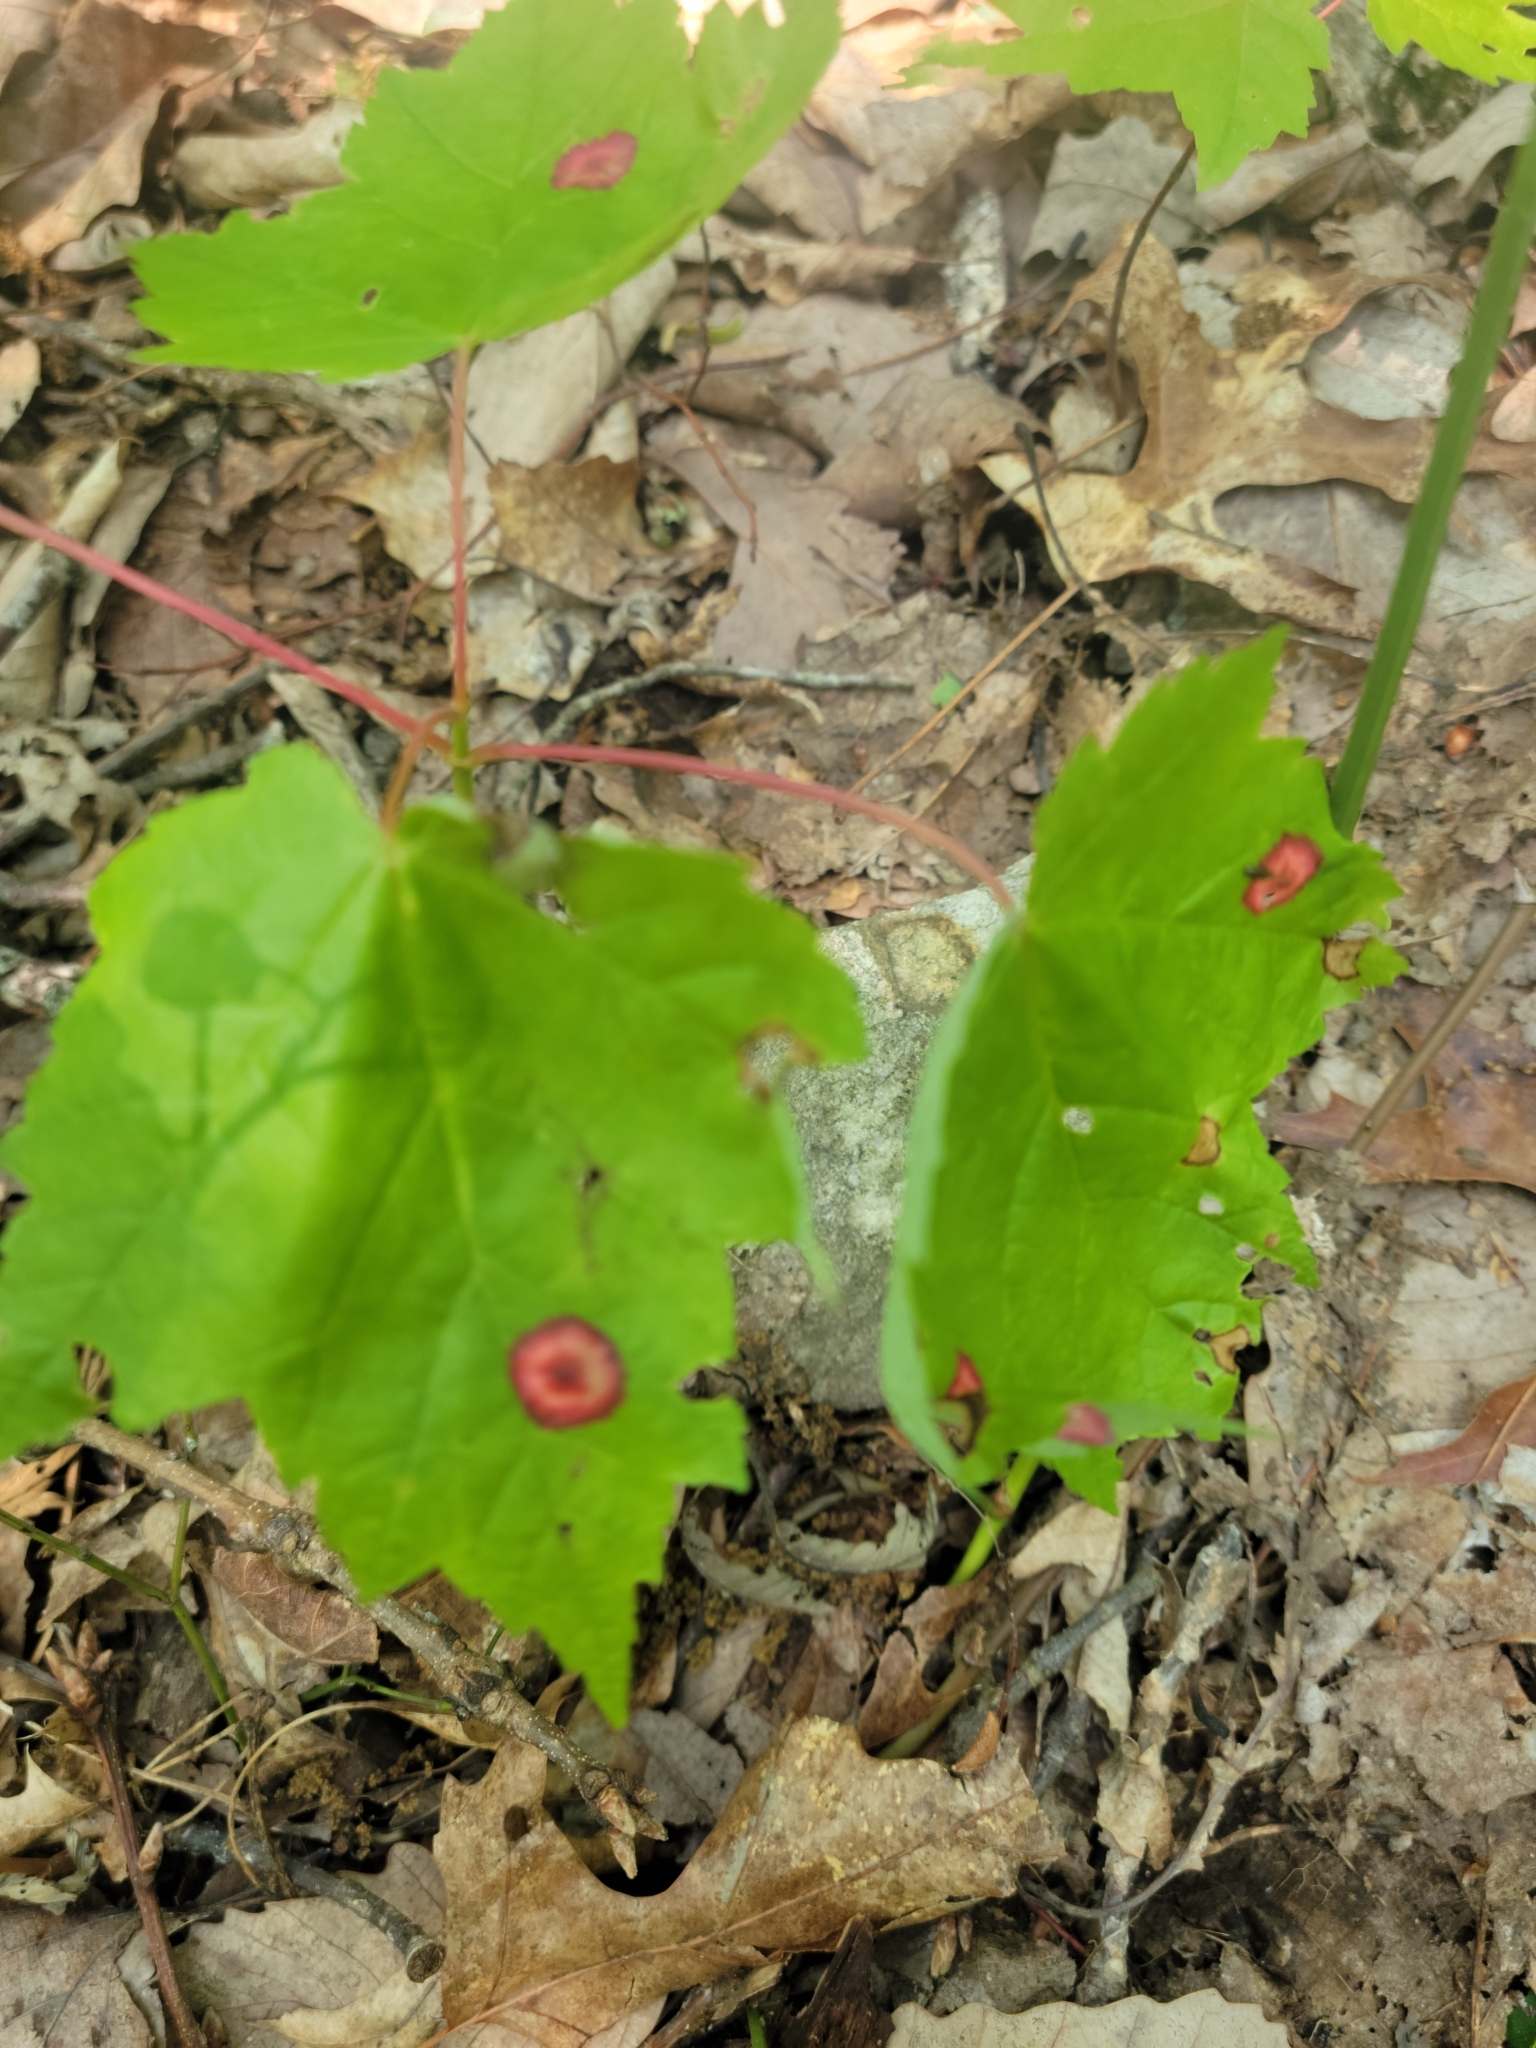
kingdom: Animalia
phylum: Arthropoda
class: Insecta
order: Diptera
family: Cecidomyiidae
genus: Acericecis
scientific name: Acericecis ocellaris
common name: Ocellate gall midge
